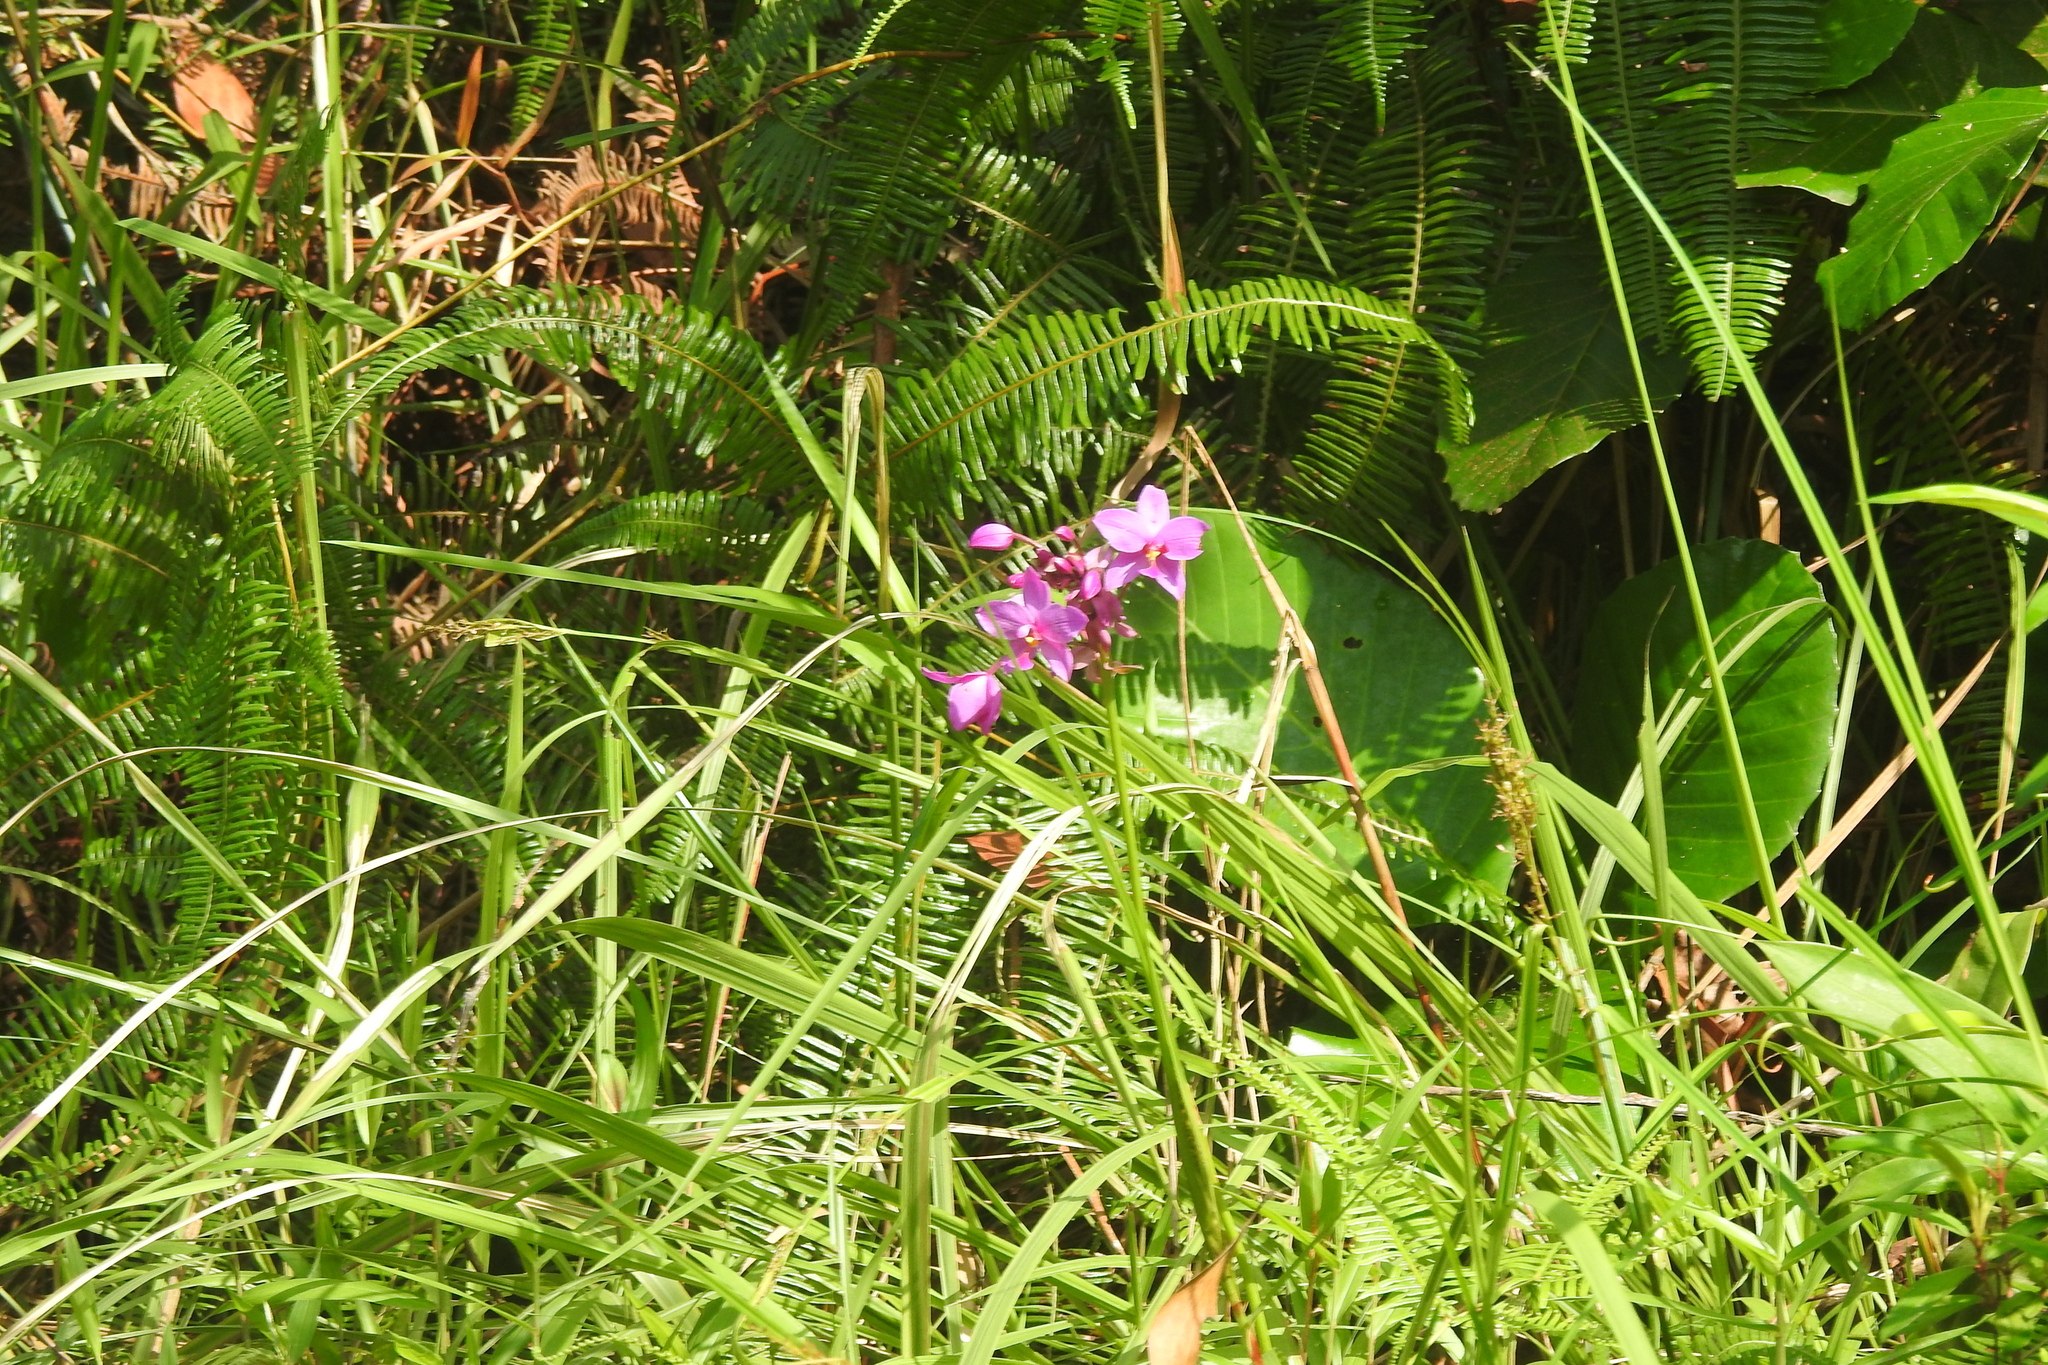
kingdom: Plantae
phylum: Tracheophyta
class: Liliopsida
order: Asparagales
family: Orchidaceae
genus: Spathoglottis
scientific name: Spathoglottis plicata
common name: Philippine ground orchid
